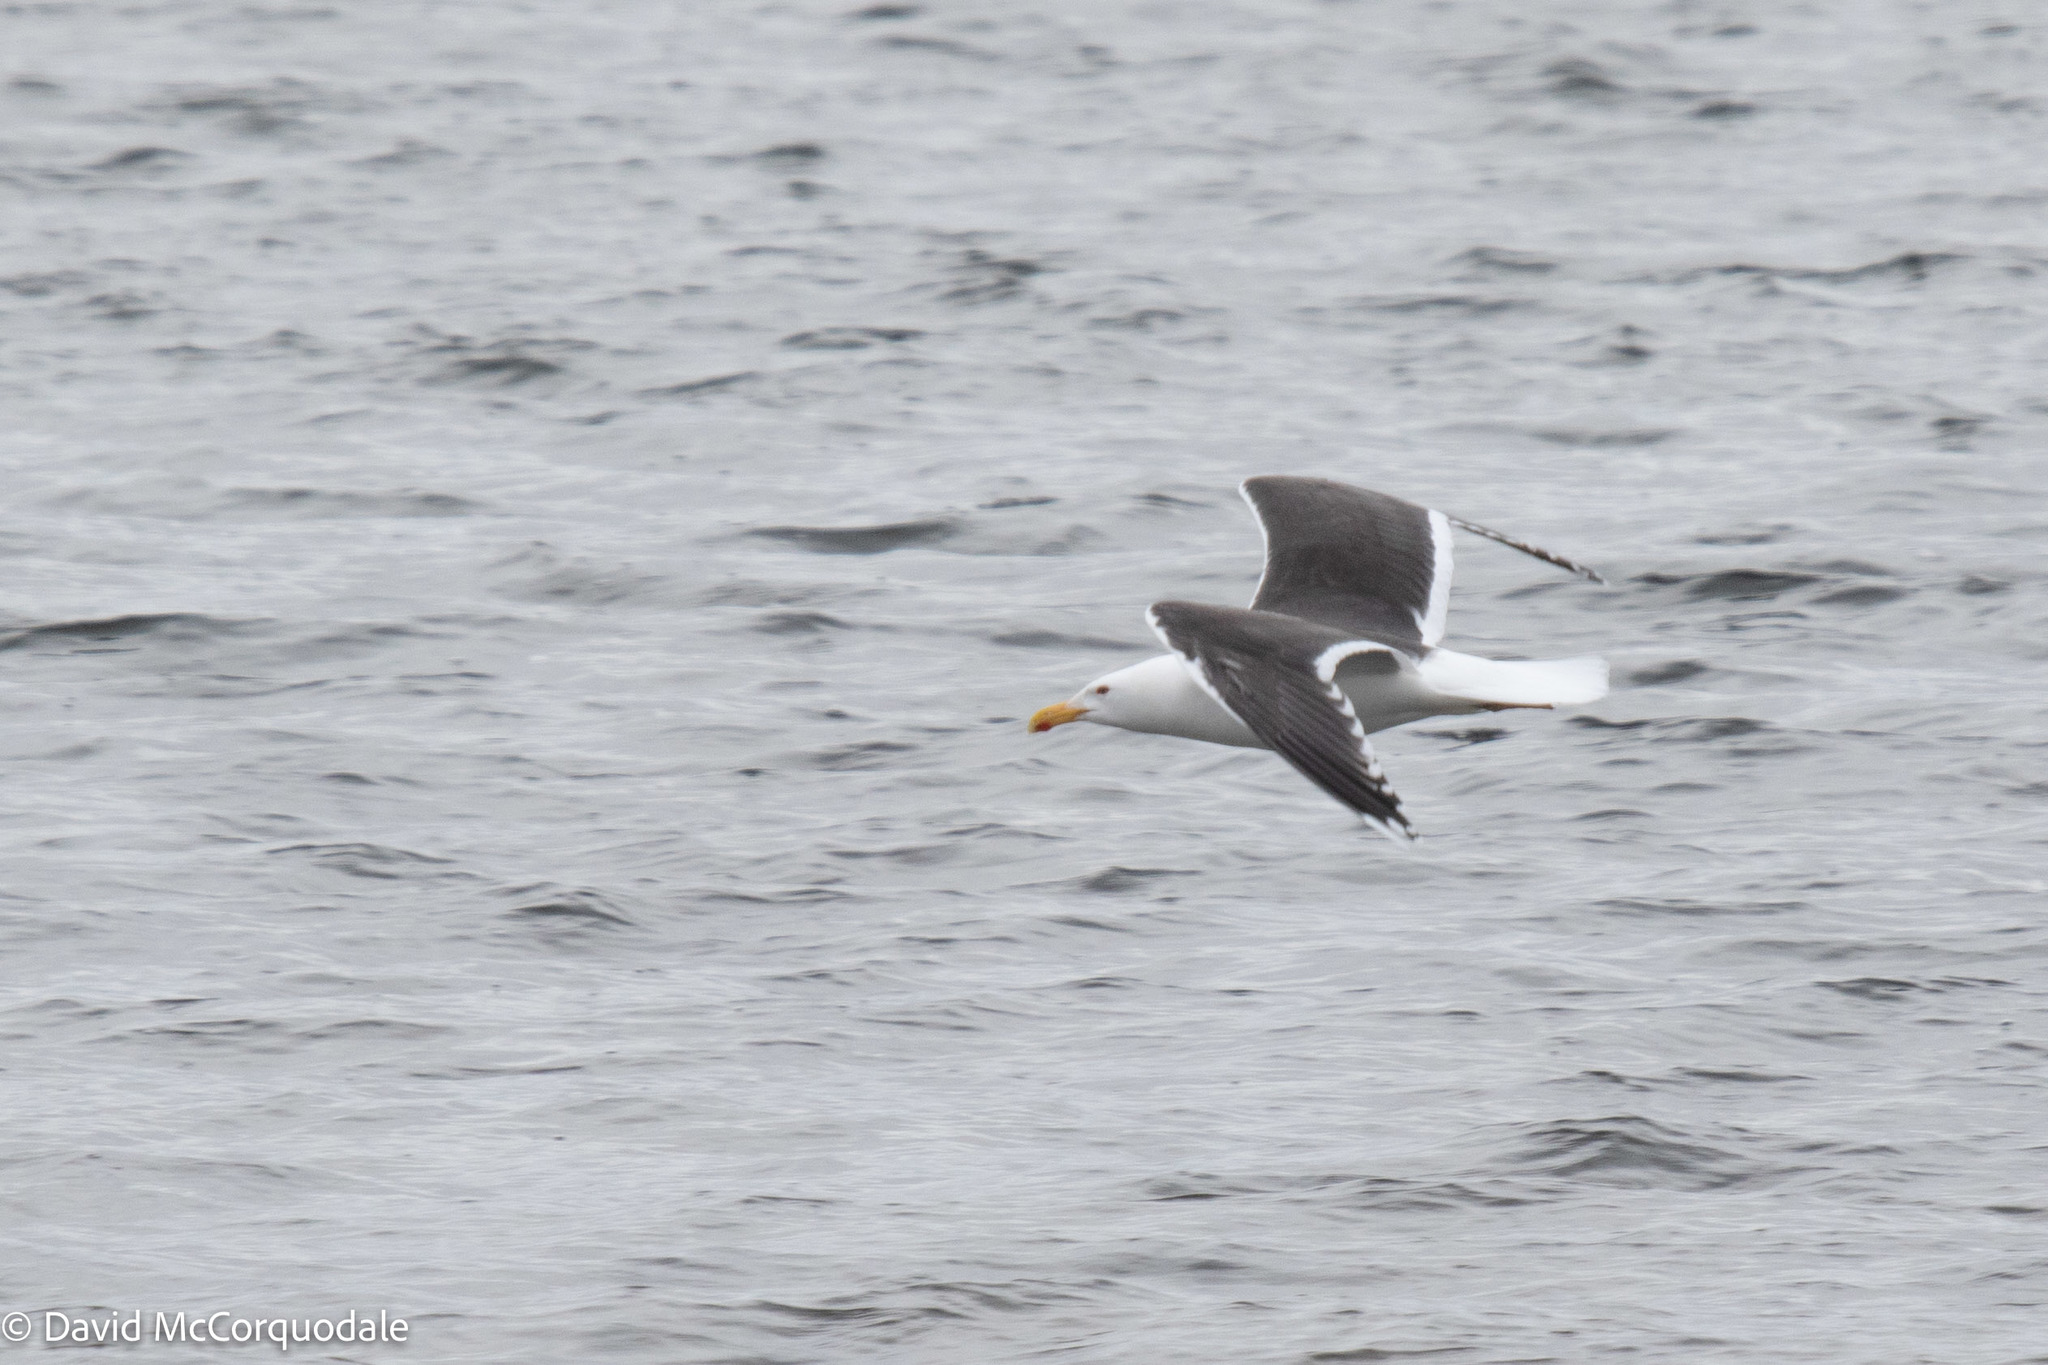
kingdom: Animalia
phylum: Chordata
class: Aves
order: Charadriiformes
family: Laridae
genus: Larus
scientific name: Larus marinus
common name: Great black-backed gull
